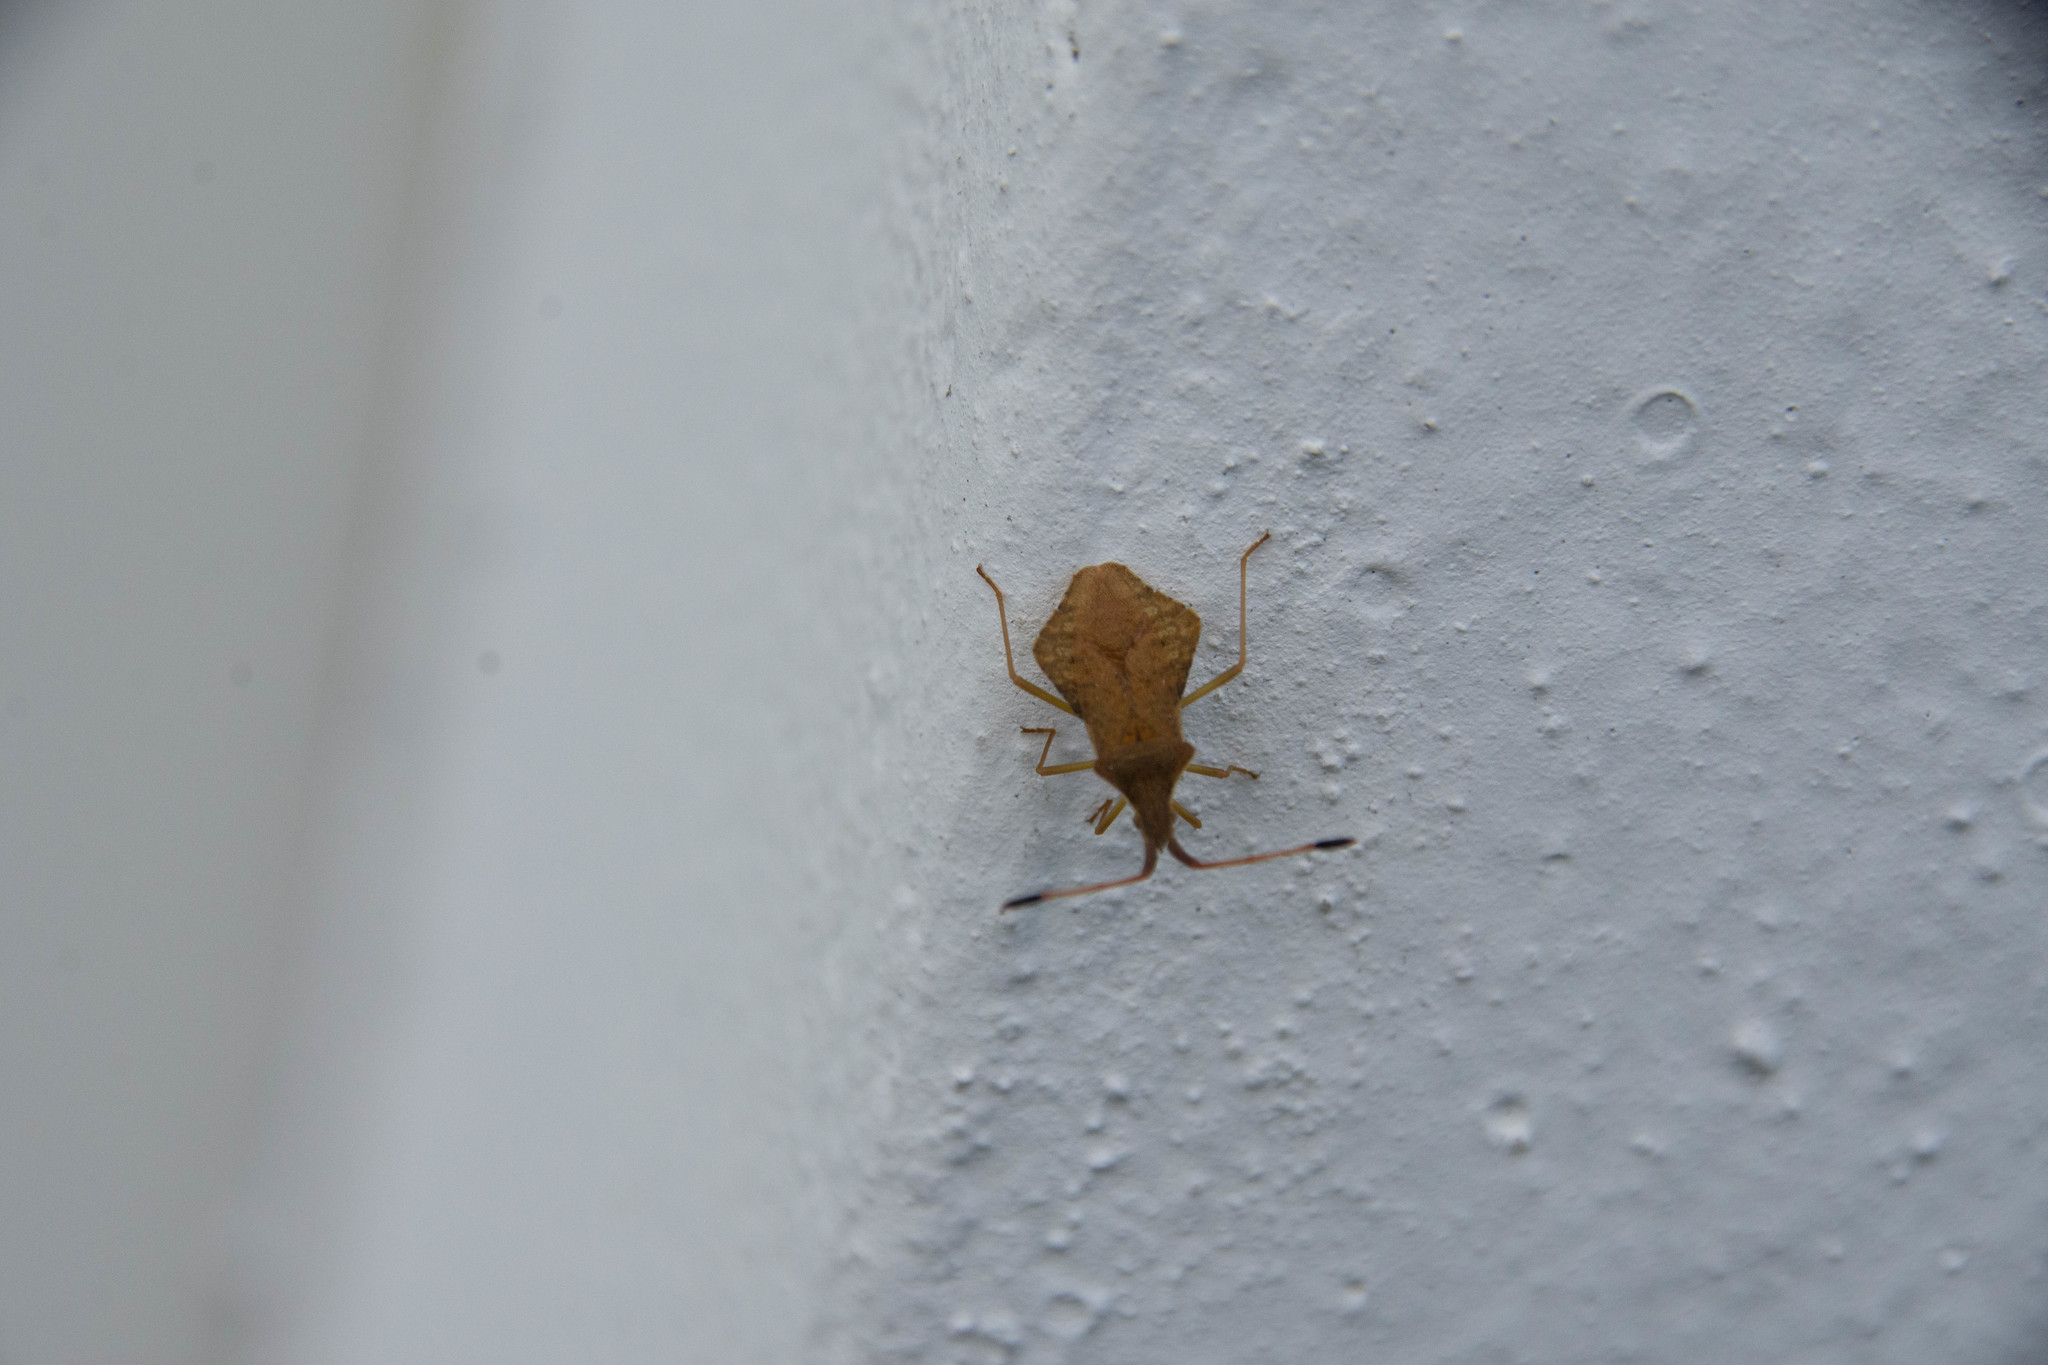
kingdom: Animalia
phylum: Arthropoda
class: Insecta
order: Hemiptera
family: Coreidae
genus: Syromastus
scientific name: Syromastus rhombeus
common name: Rhombic leatherbug
